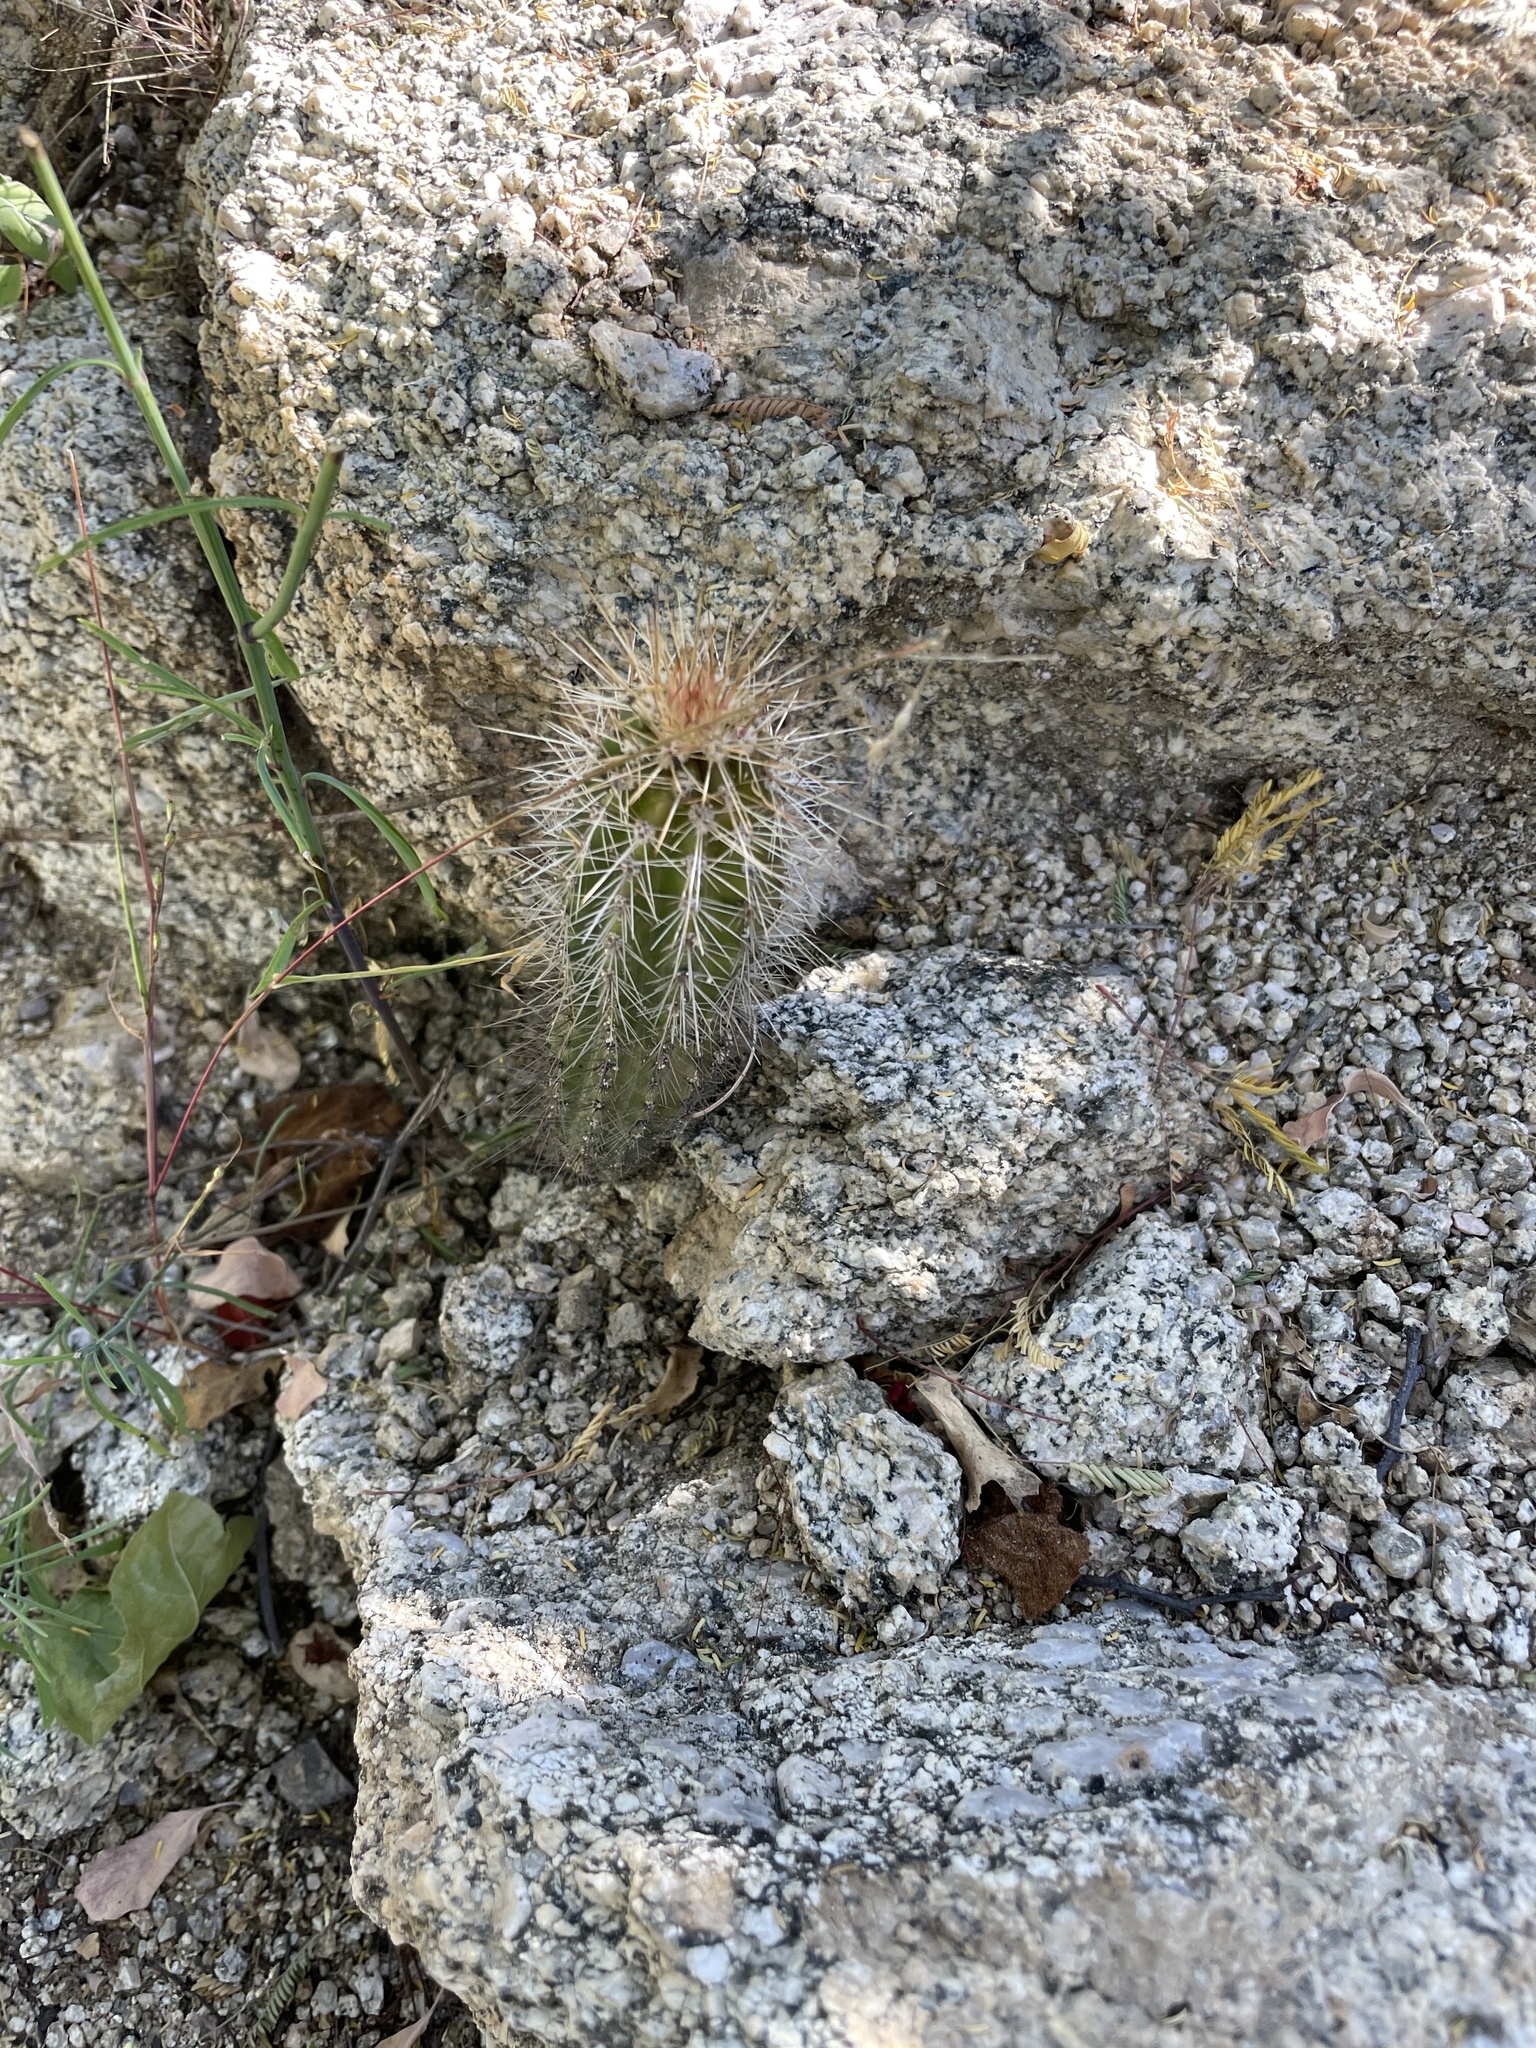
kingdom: Plantae
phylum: Tracheophyta
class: Magnoliopsida
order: Caryophyllales
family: Cactaceae
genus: Pachycereus
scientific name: Pachycereus pringlei
